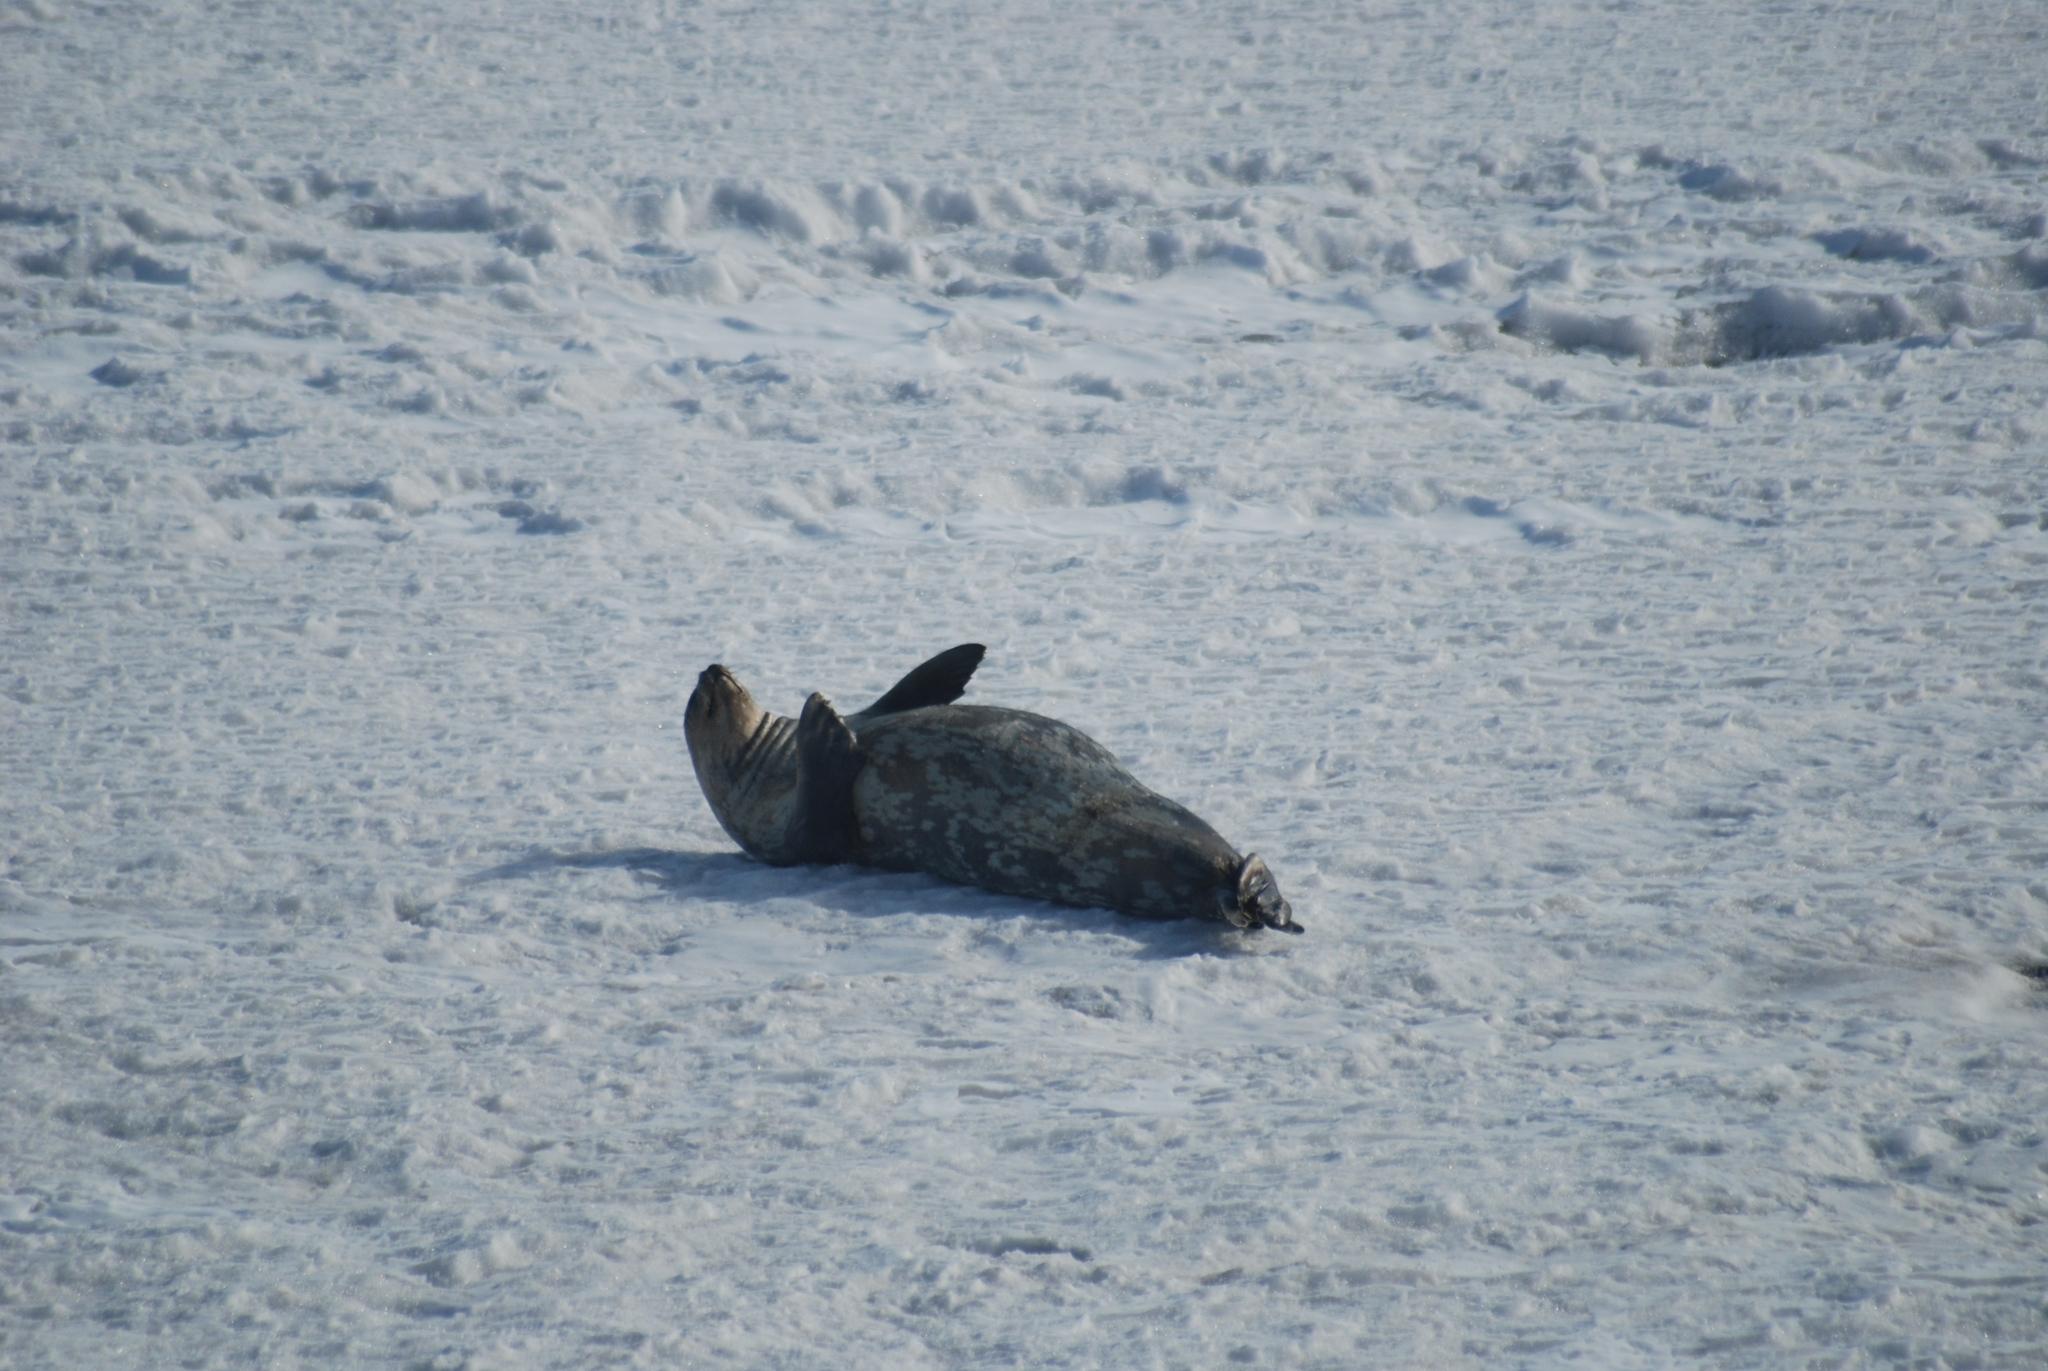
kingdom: Animalia
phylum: Chordata
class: Mammalia
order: Carnivora
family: Phocidae
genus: Leptonychotes
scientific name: Leptonychotes weddellii
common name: Weddell seal
